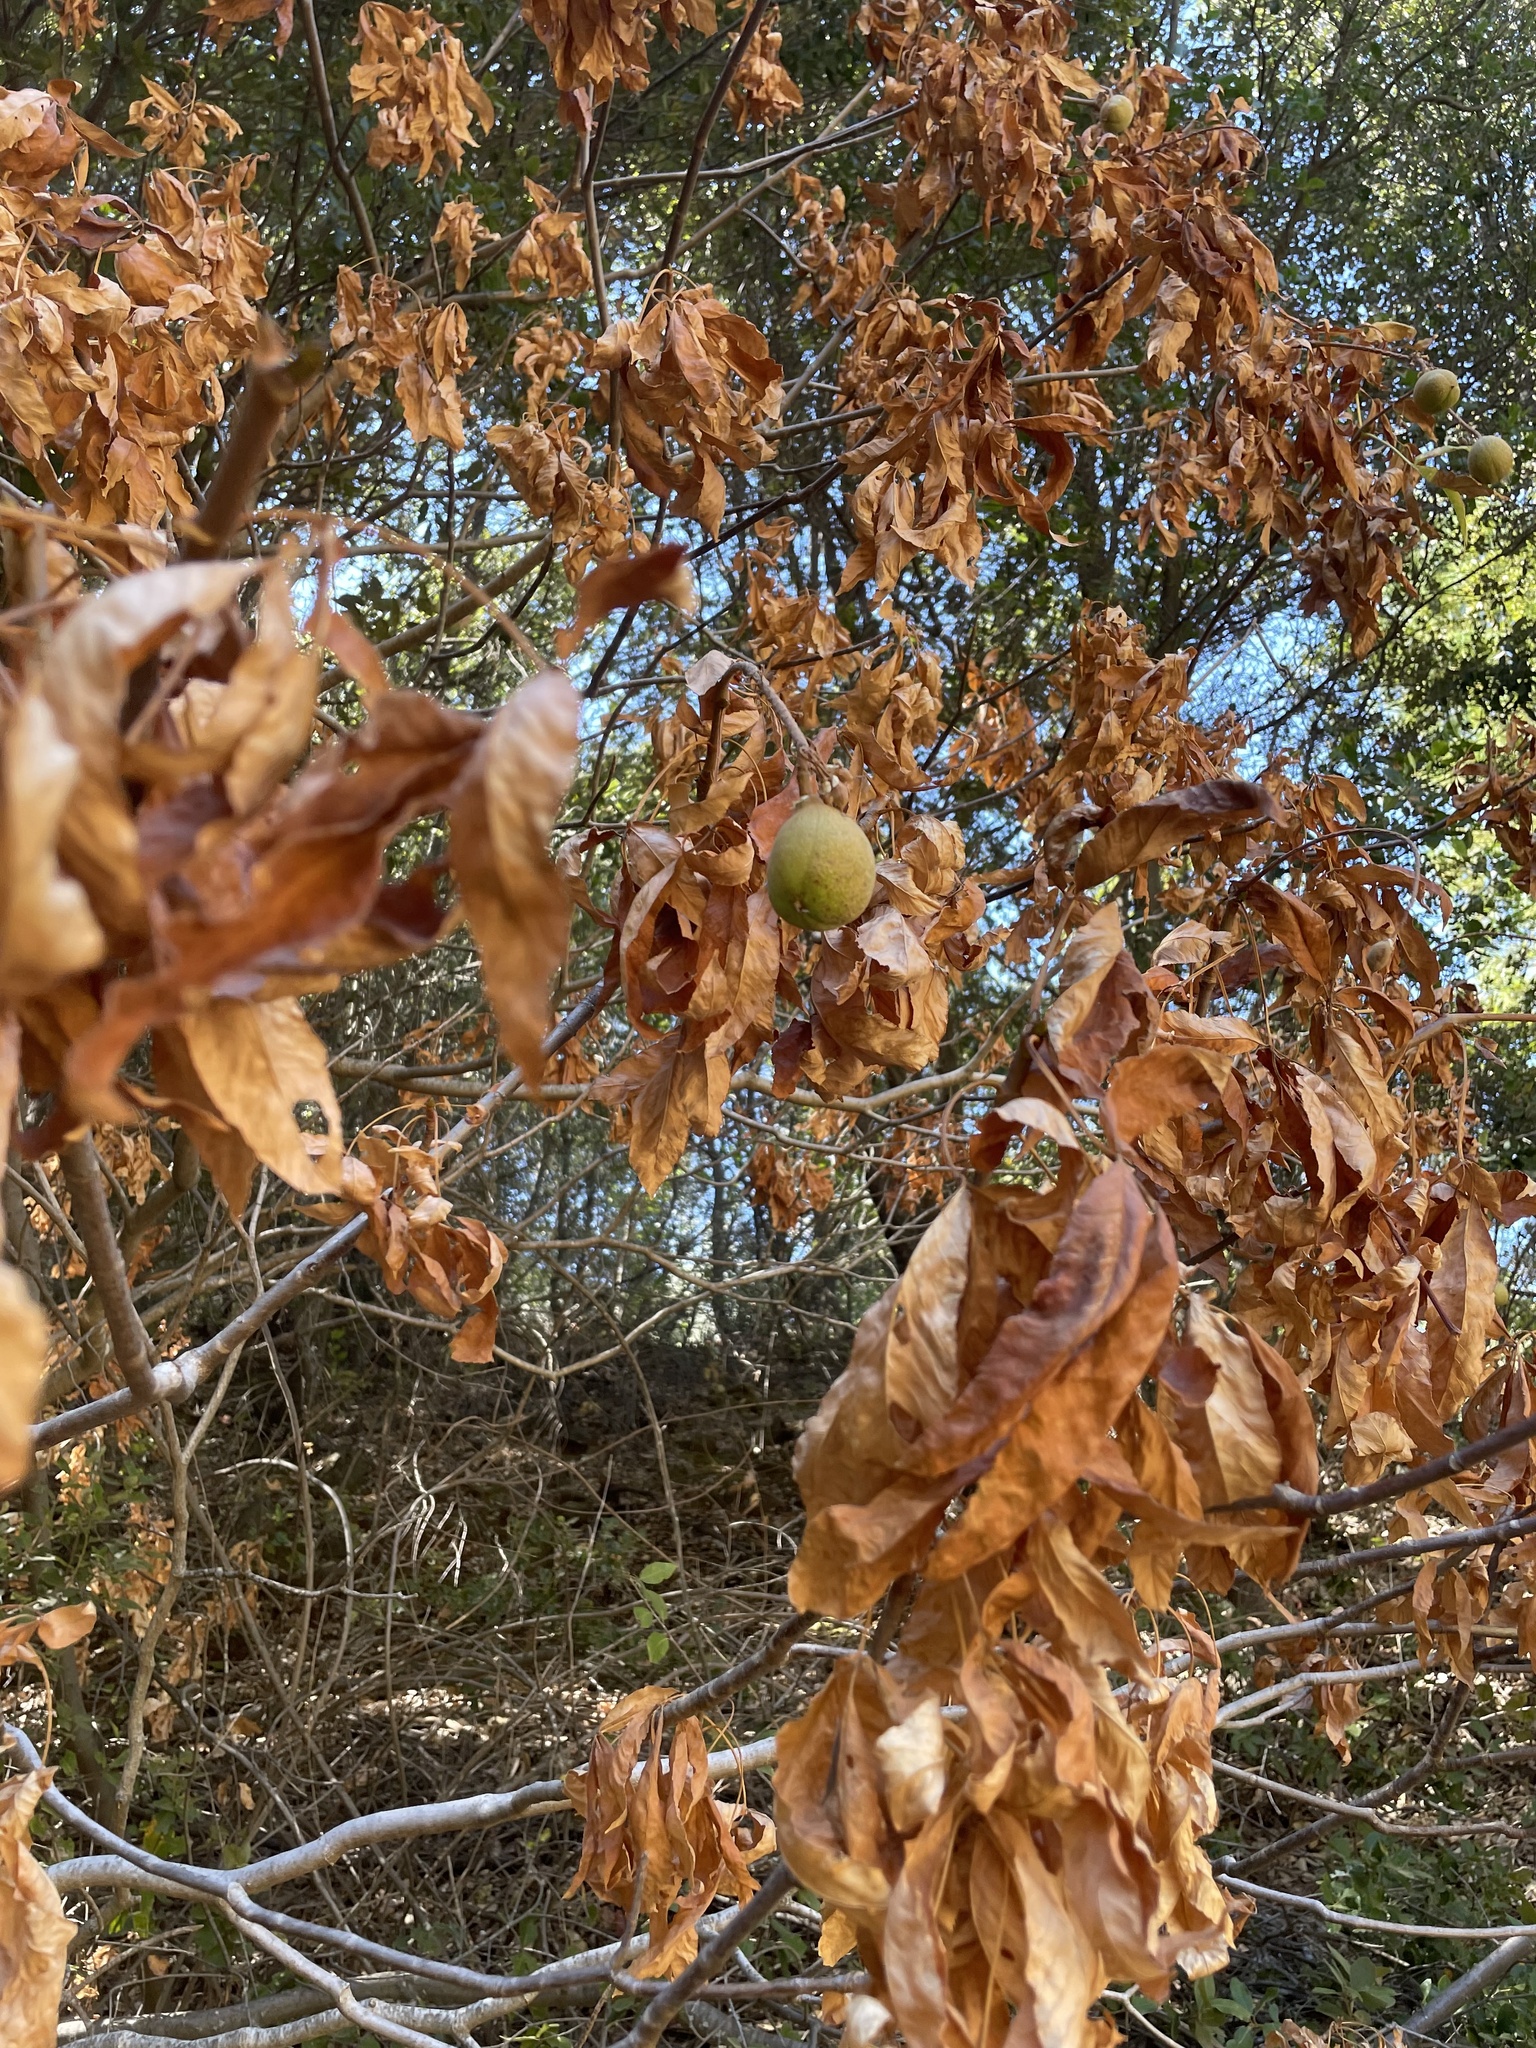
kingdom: Plantae
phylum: Tracheophyta
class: Magnoliopsida
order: Sapindales
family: Sapindaceae
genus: Aesculus
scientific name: Aesculus californica
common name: California buckeye
